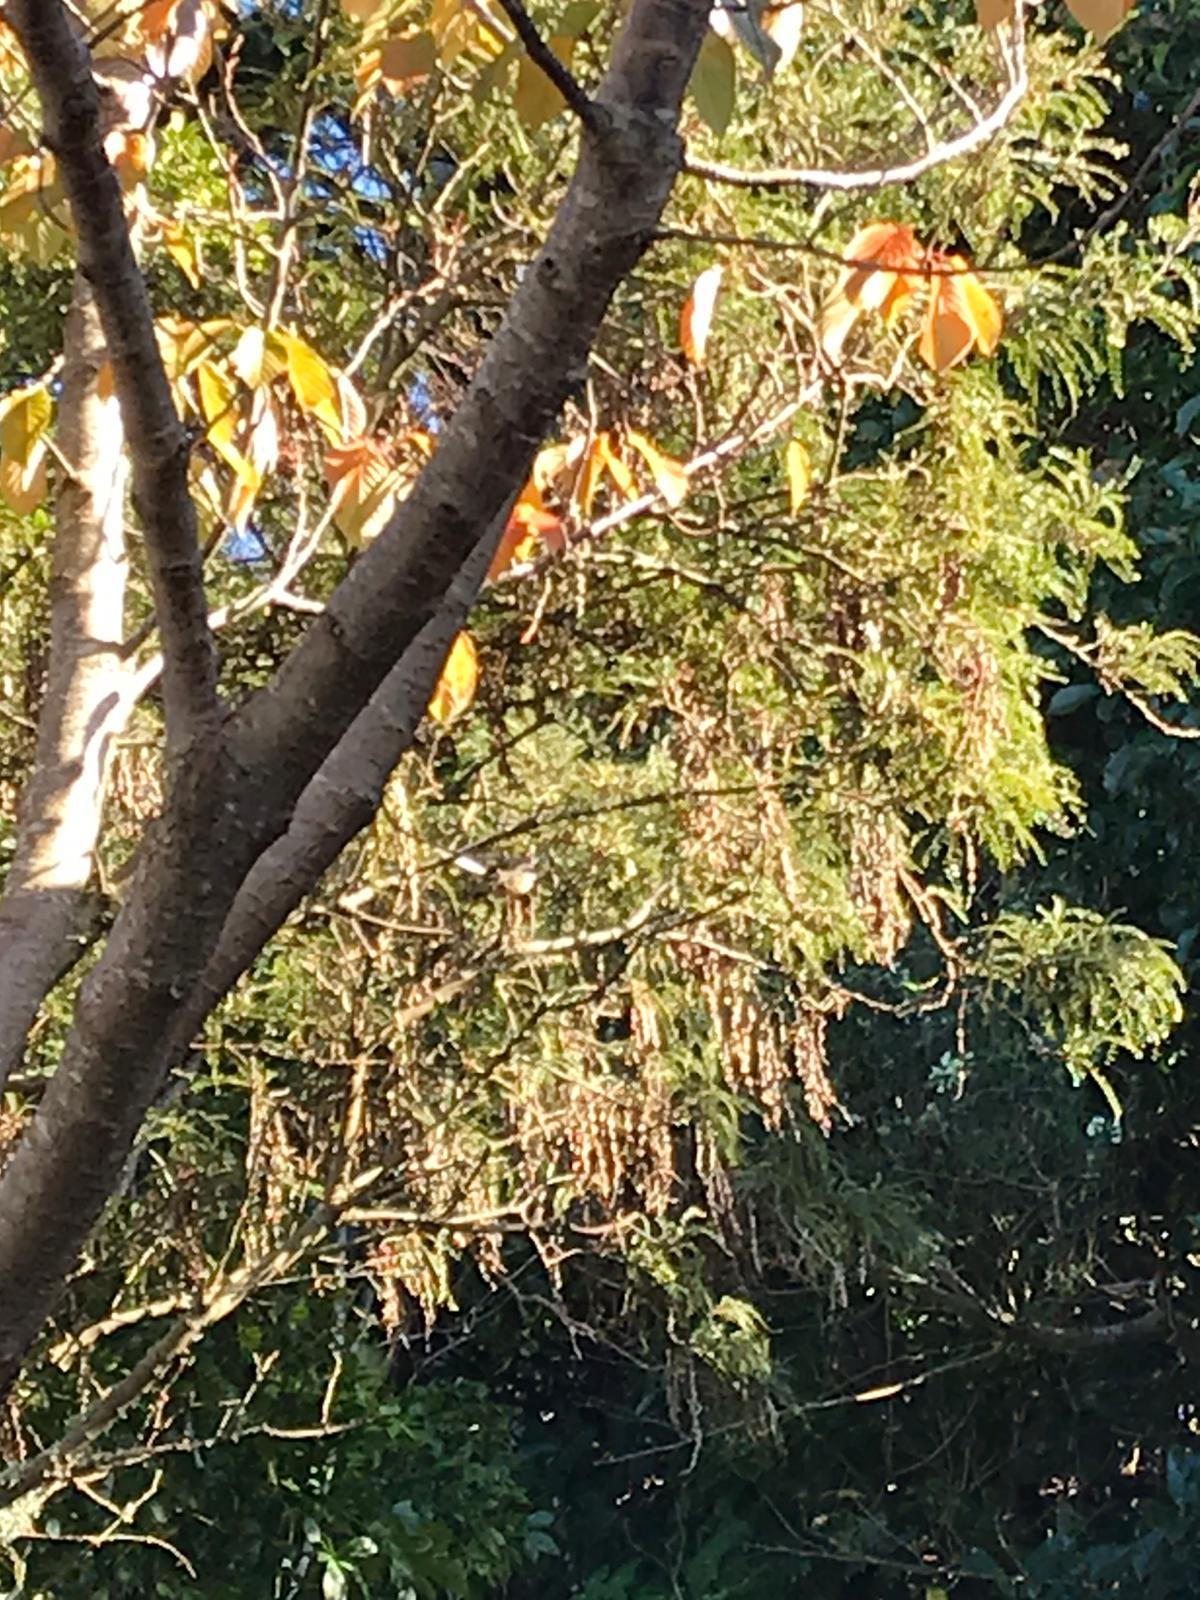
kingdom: Animalia
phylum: Chordata
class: Aves
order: Passeriformes
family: Rhipiduridae
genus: Rhipidura
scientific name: Rhipidura fuliginosa
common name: New zealand fantail
